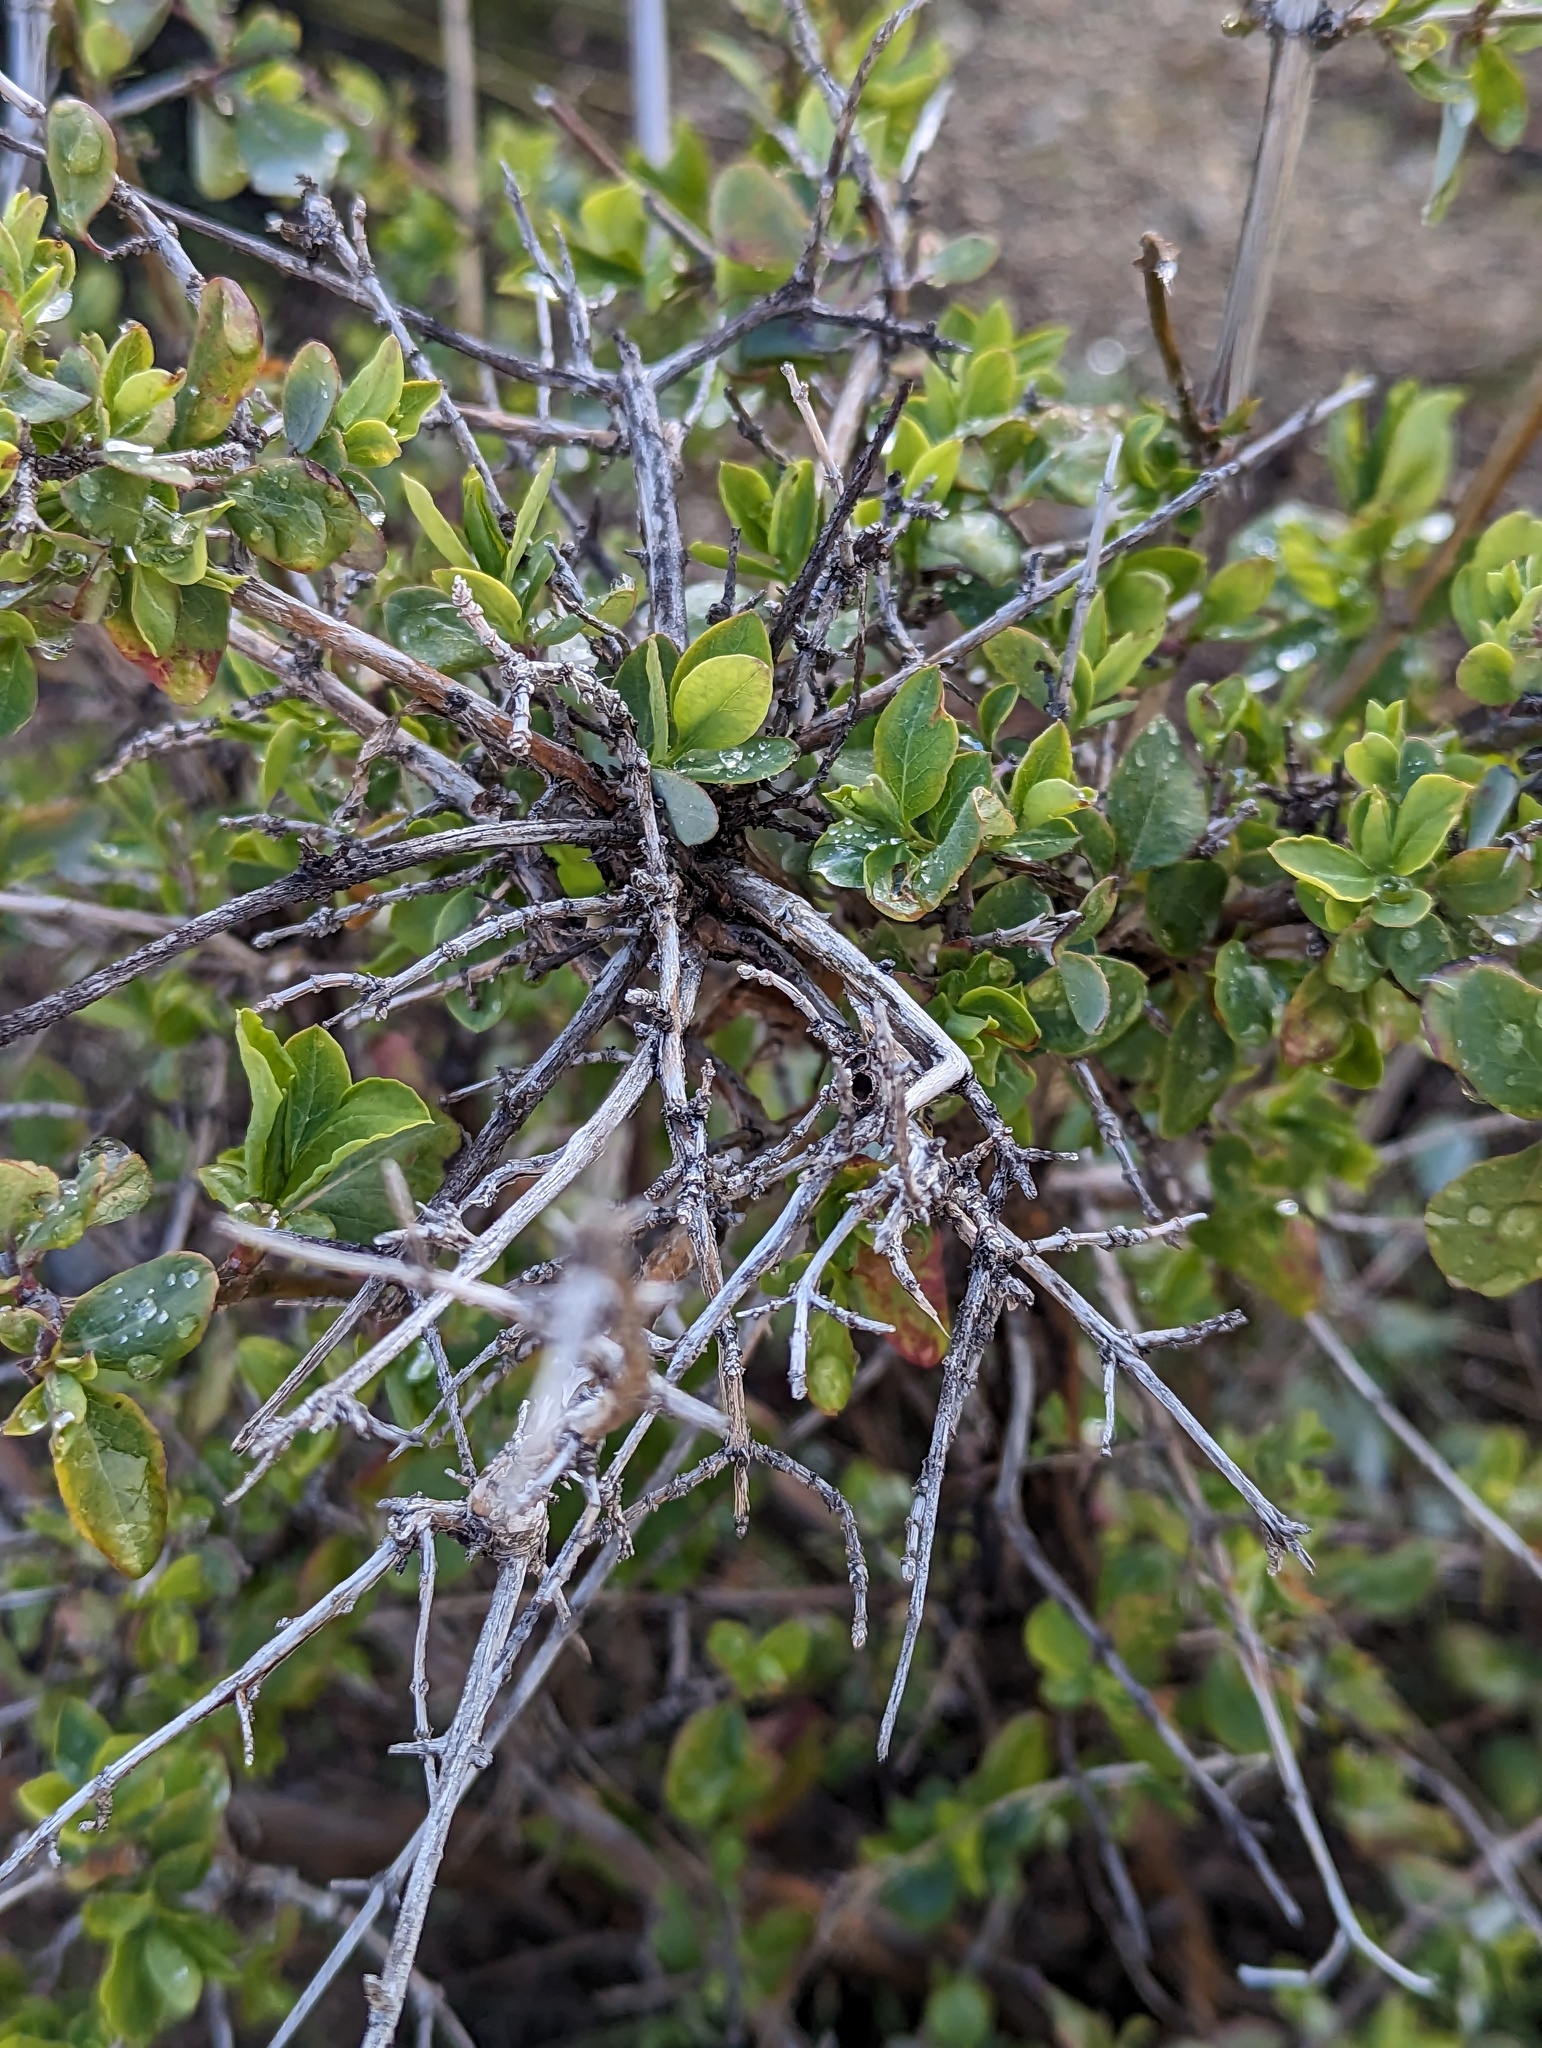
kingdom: Plantae
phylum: Tracheophyta
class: Magnoliopsida
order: Dipsacales
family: Caprifoliaceae
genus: Lonicera
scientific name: Lonicera subspicata
